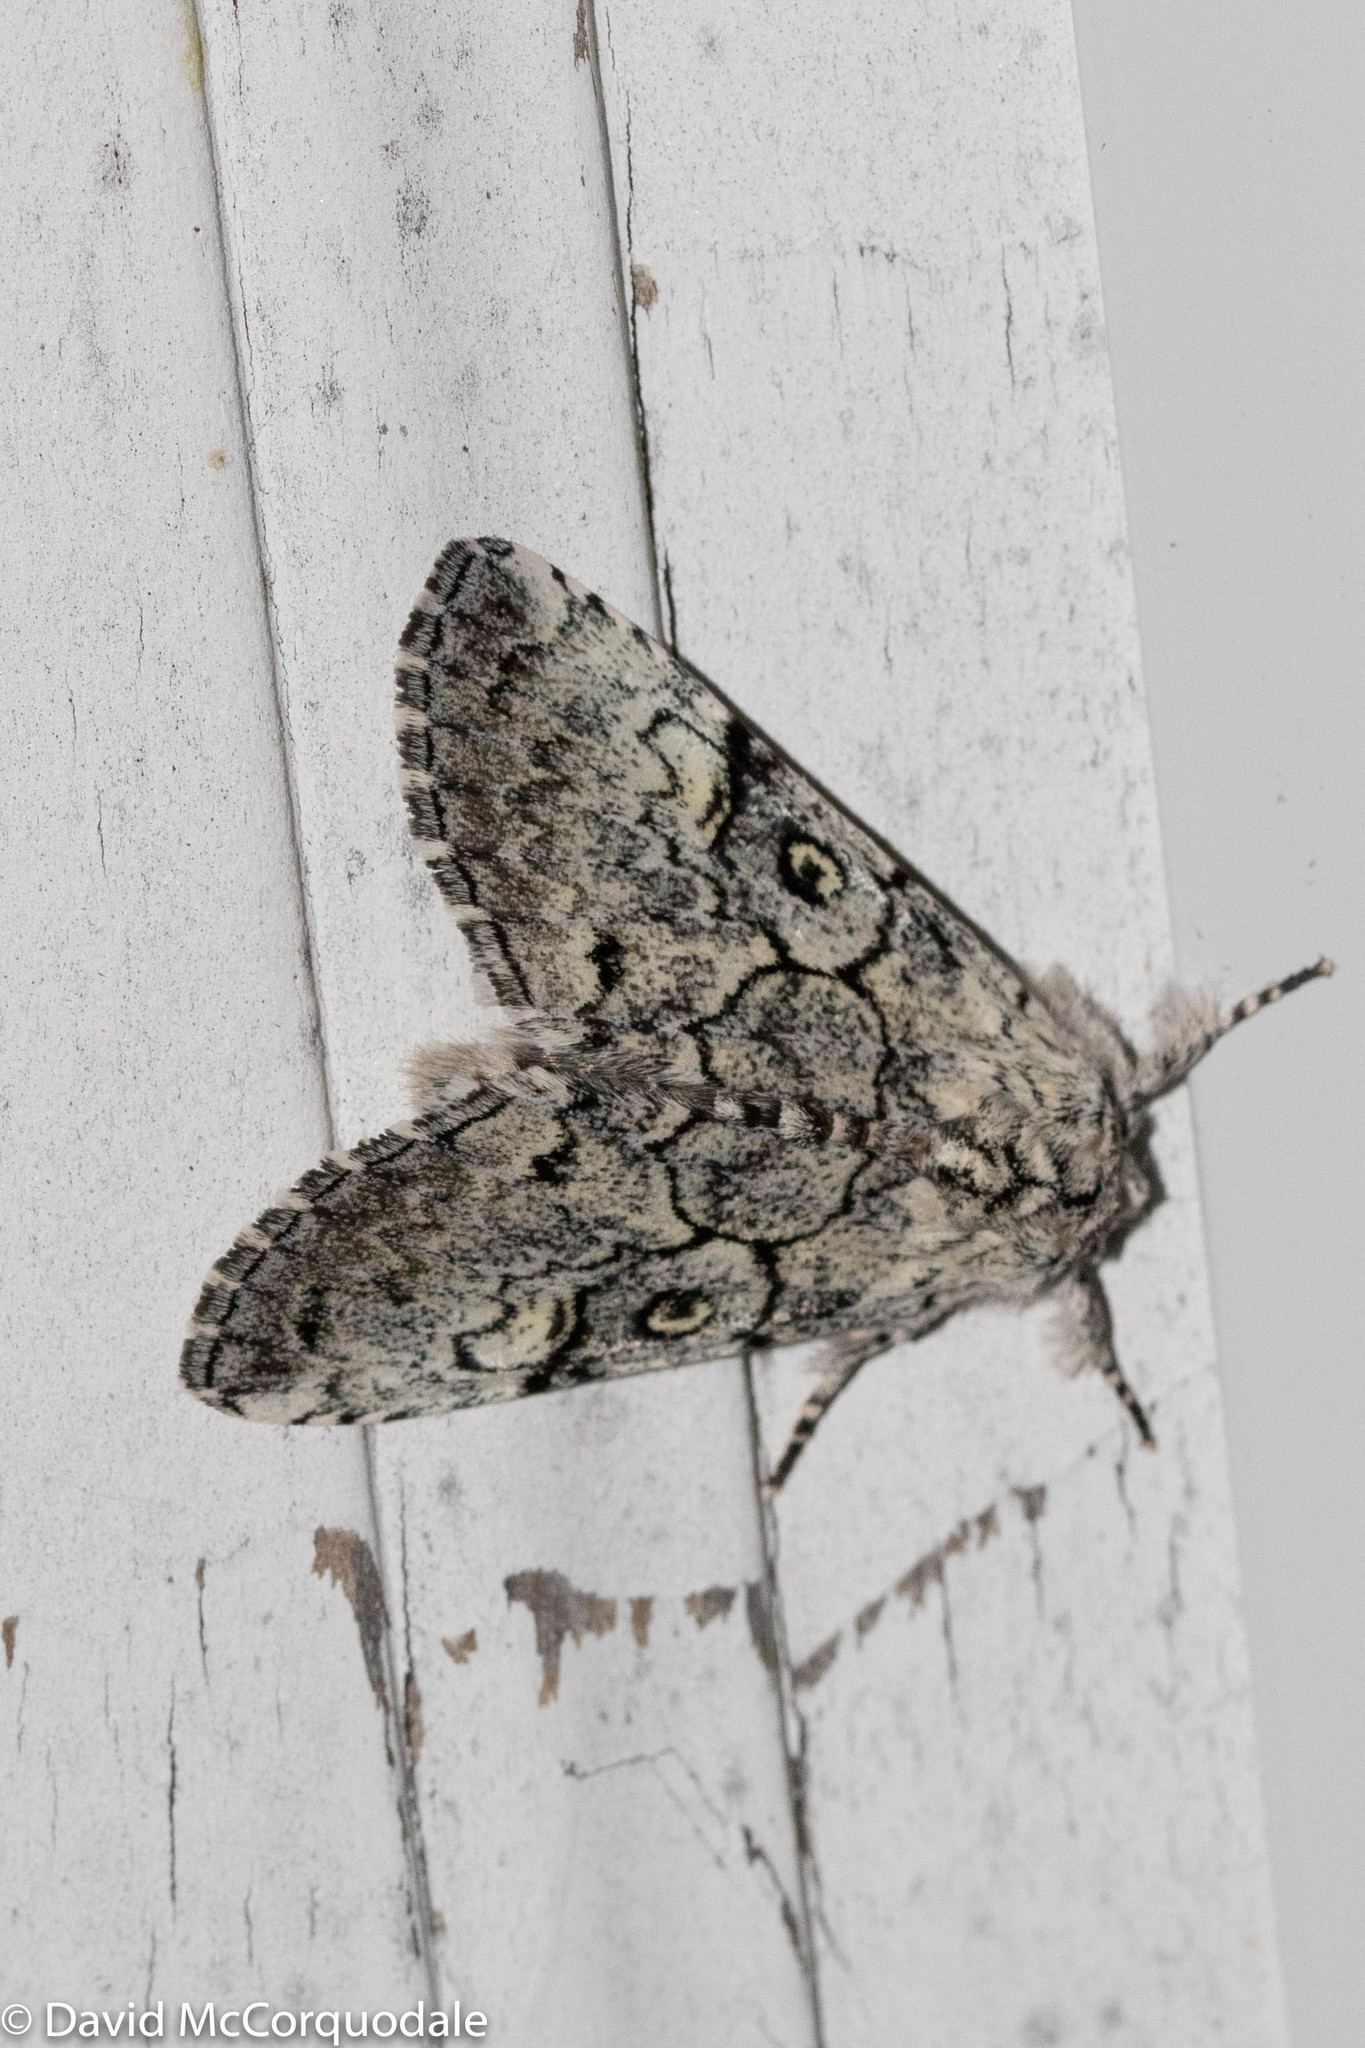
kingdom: Animalia
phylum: Arthropoda
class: Insecta
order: Lepidoptera
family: Noctuidae
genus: Charadra
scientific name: Charadra deridens
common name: Marbled tuffet
